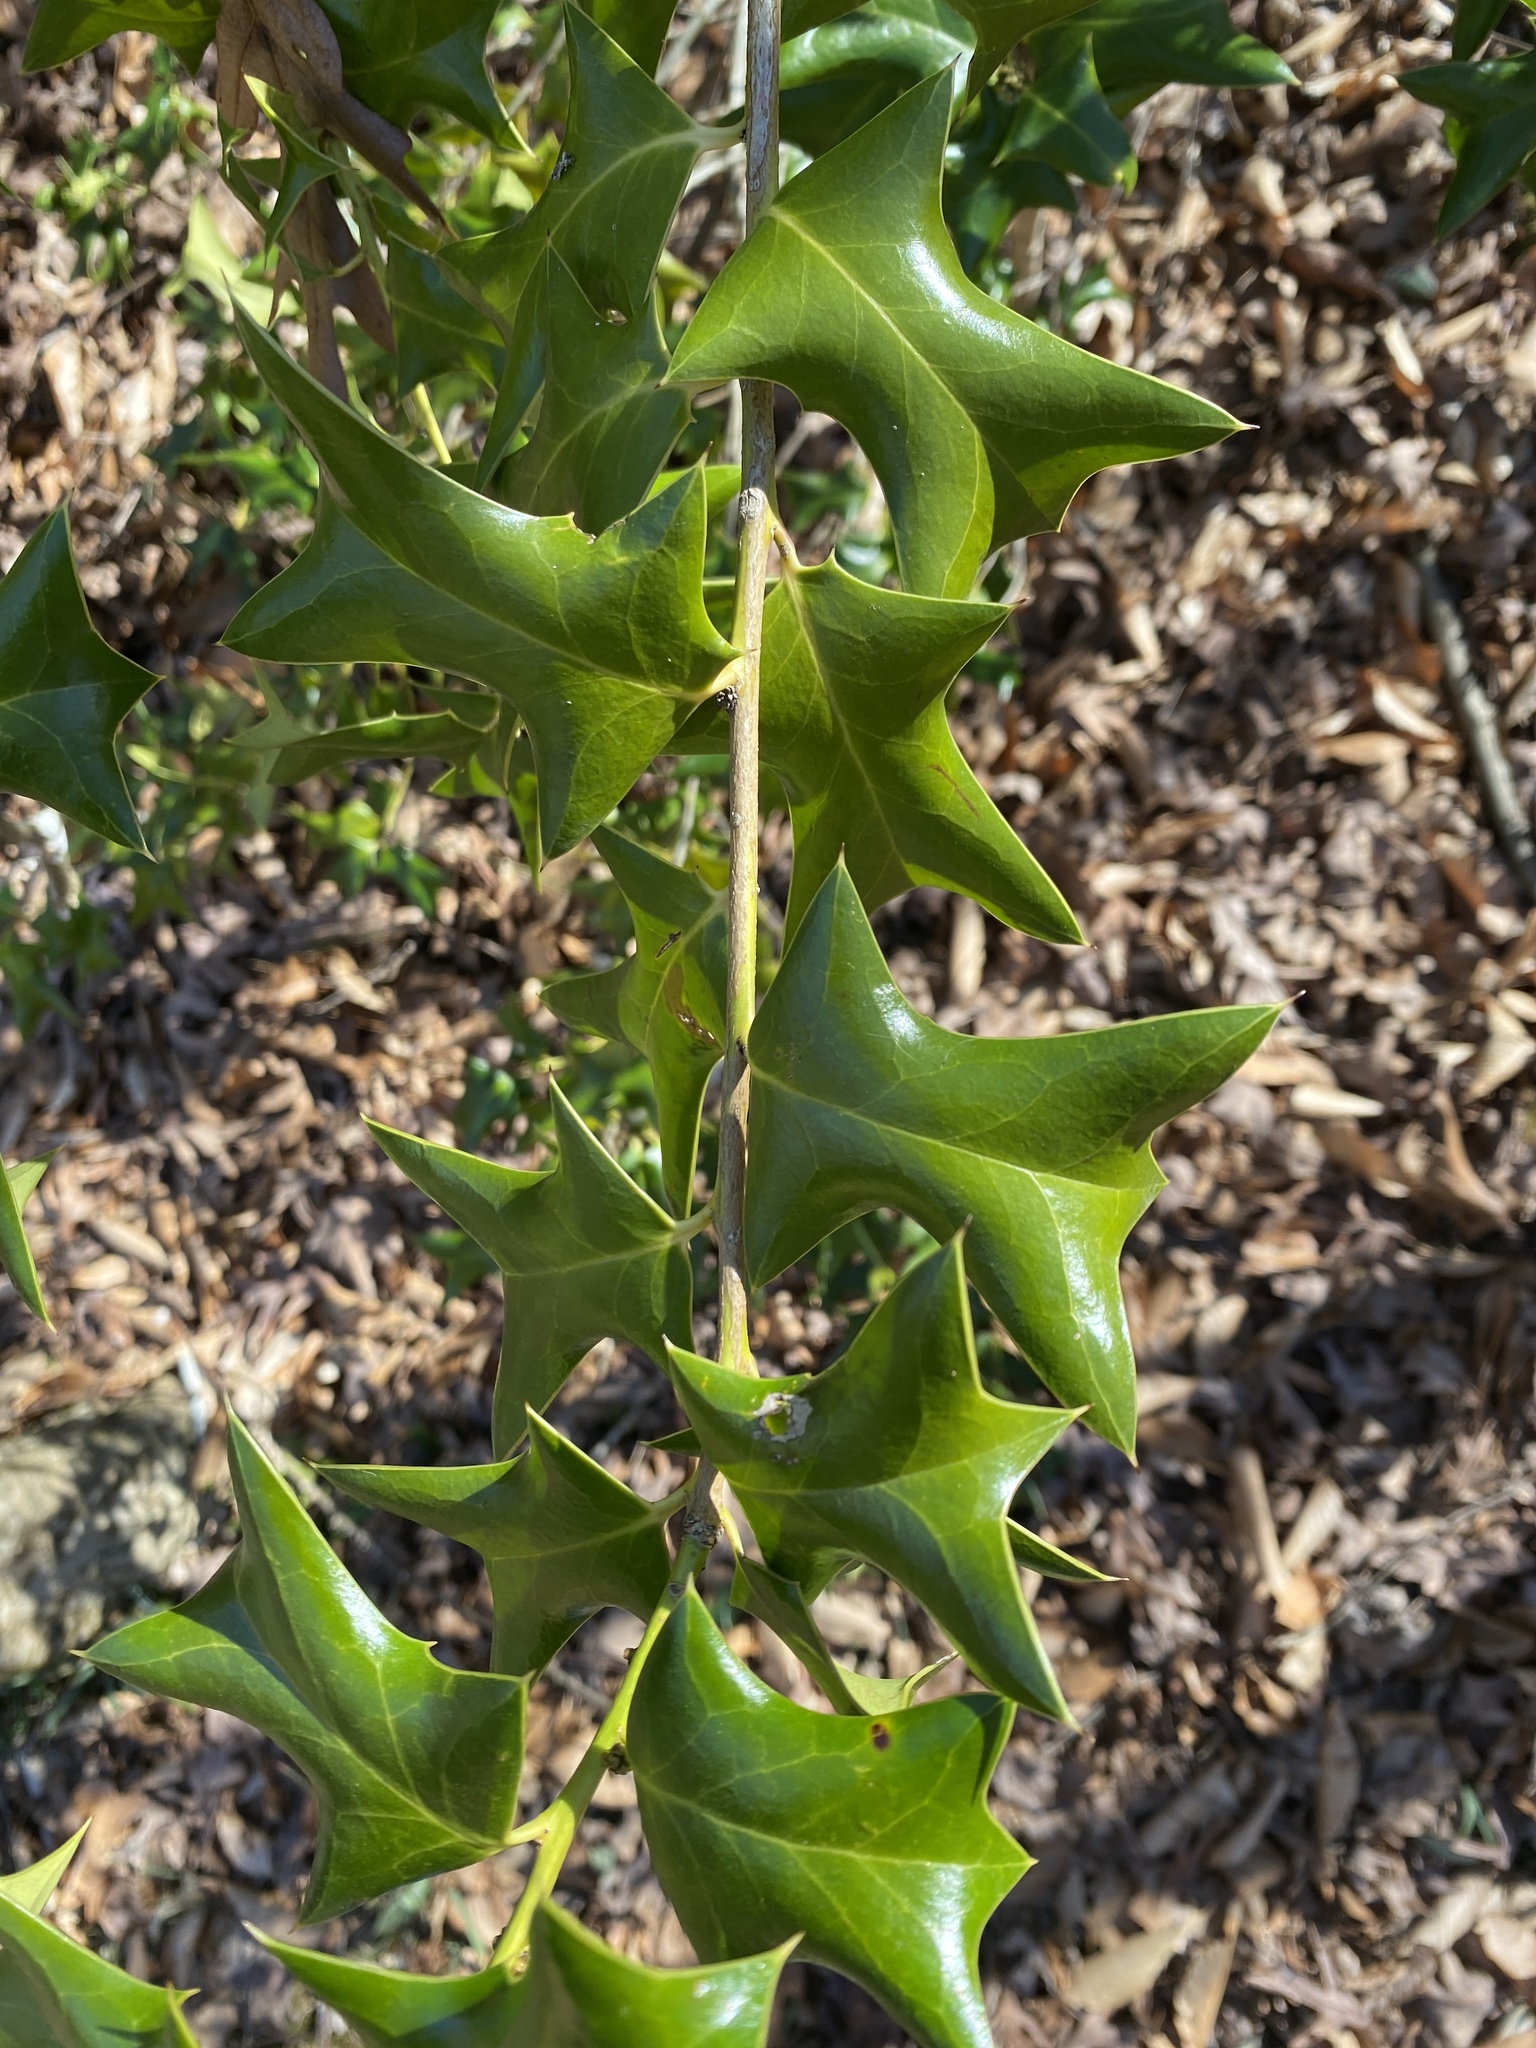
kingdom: Plantae
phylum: Tracheophyta
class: Magnoliopsida
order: Aquifoliales
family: Aquifoliaceae
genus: Ilex
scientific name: Ilex cornuta
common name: Chinese holly
